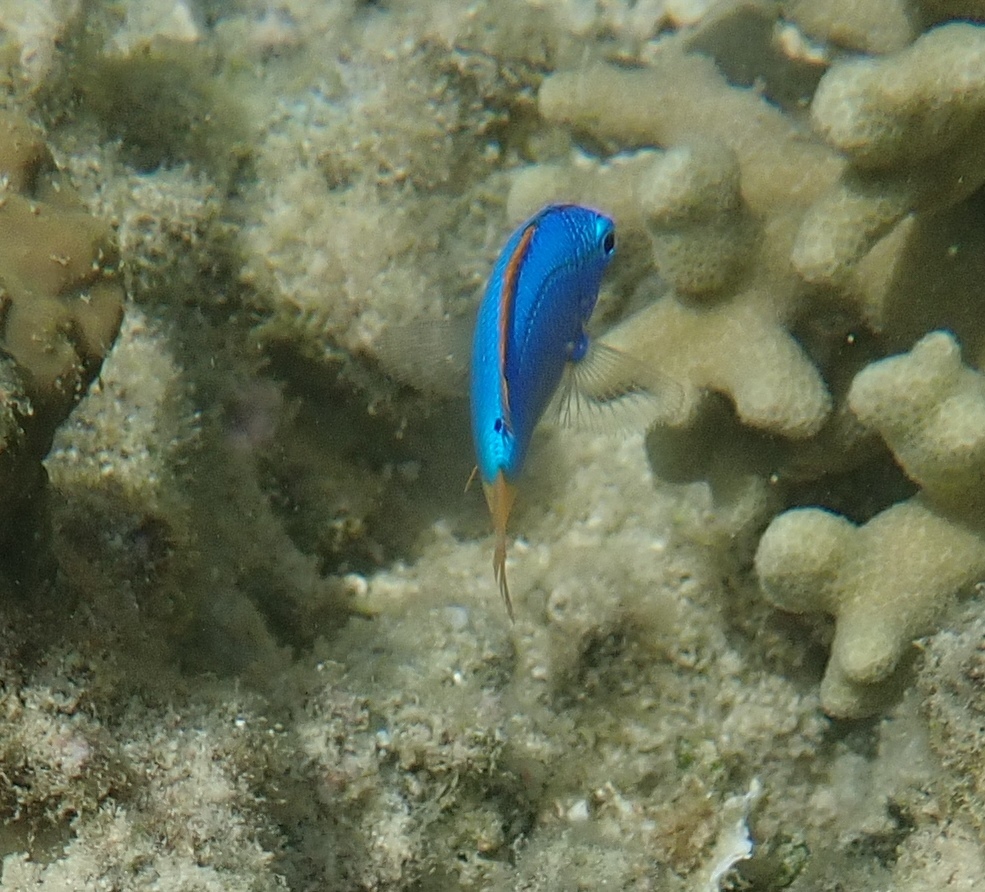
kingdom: Animalia
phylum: Chordata
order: Perciformes
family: Pomacentridae
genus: Chrysiptera
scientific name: Chrysiptera taupou
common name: Fiji damsel
